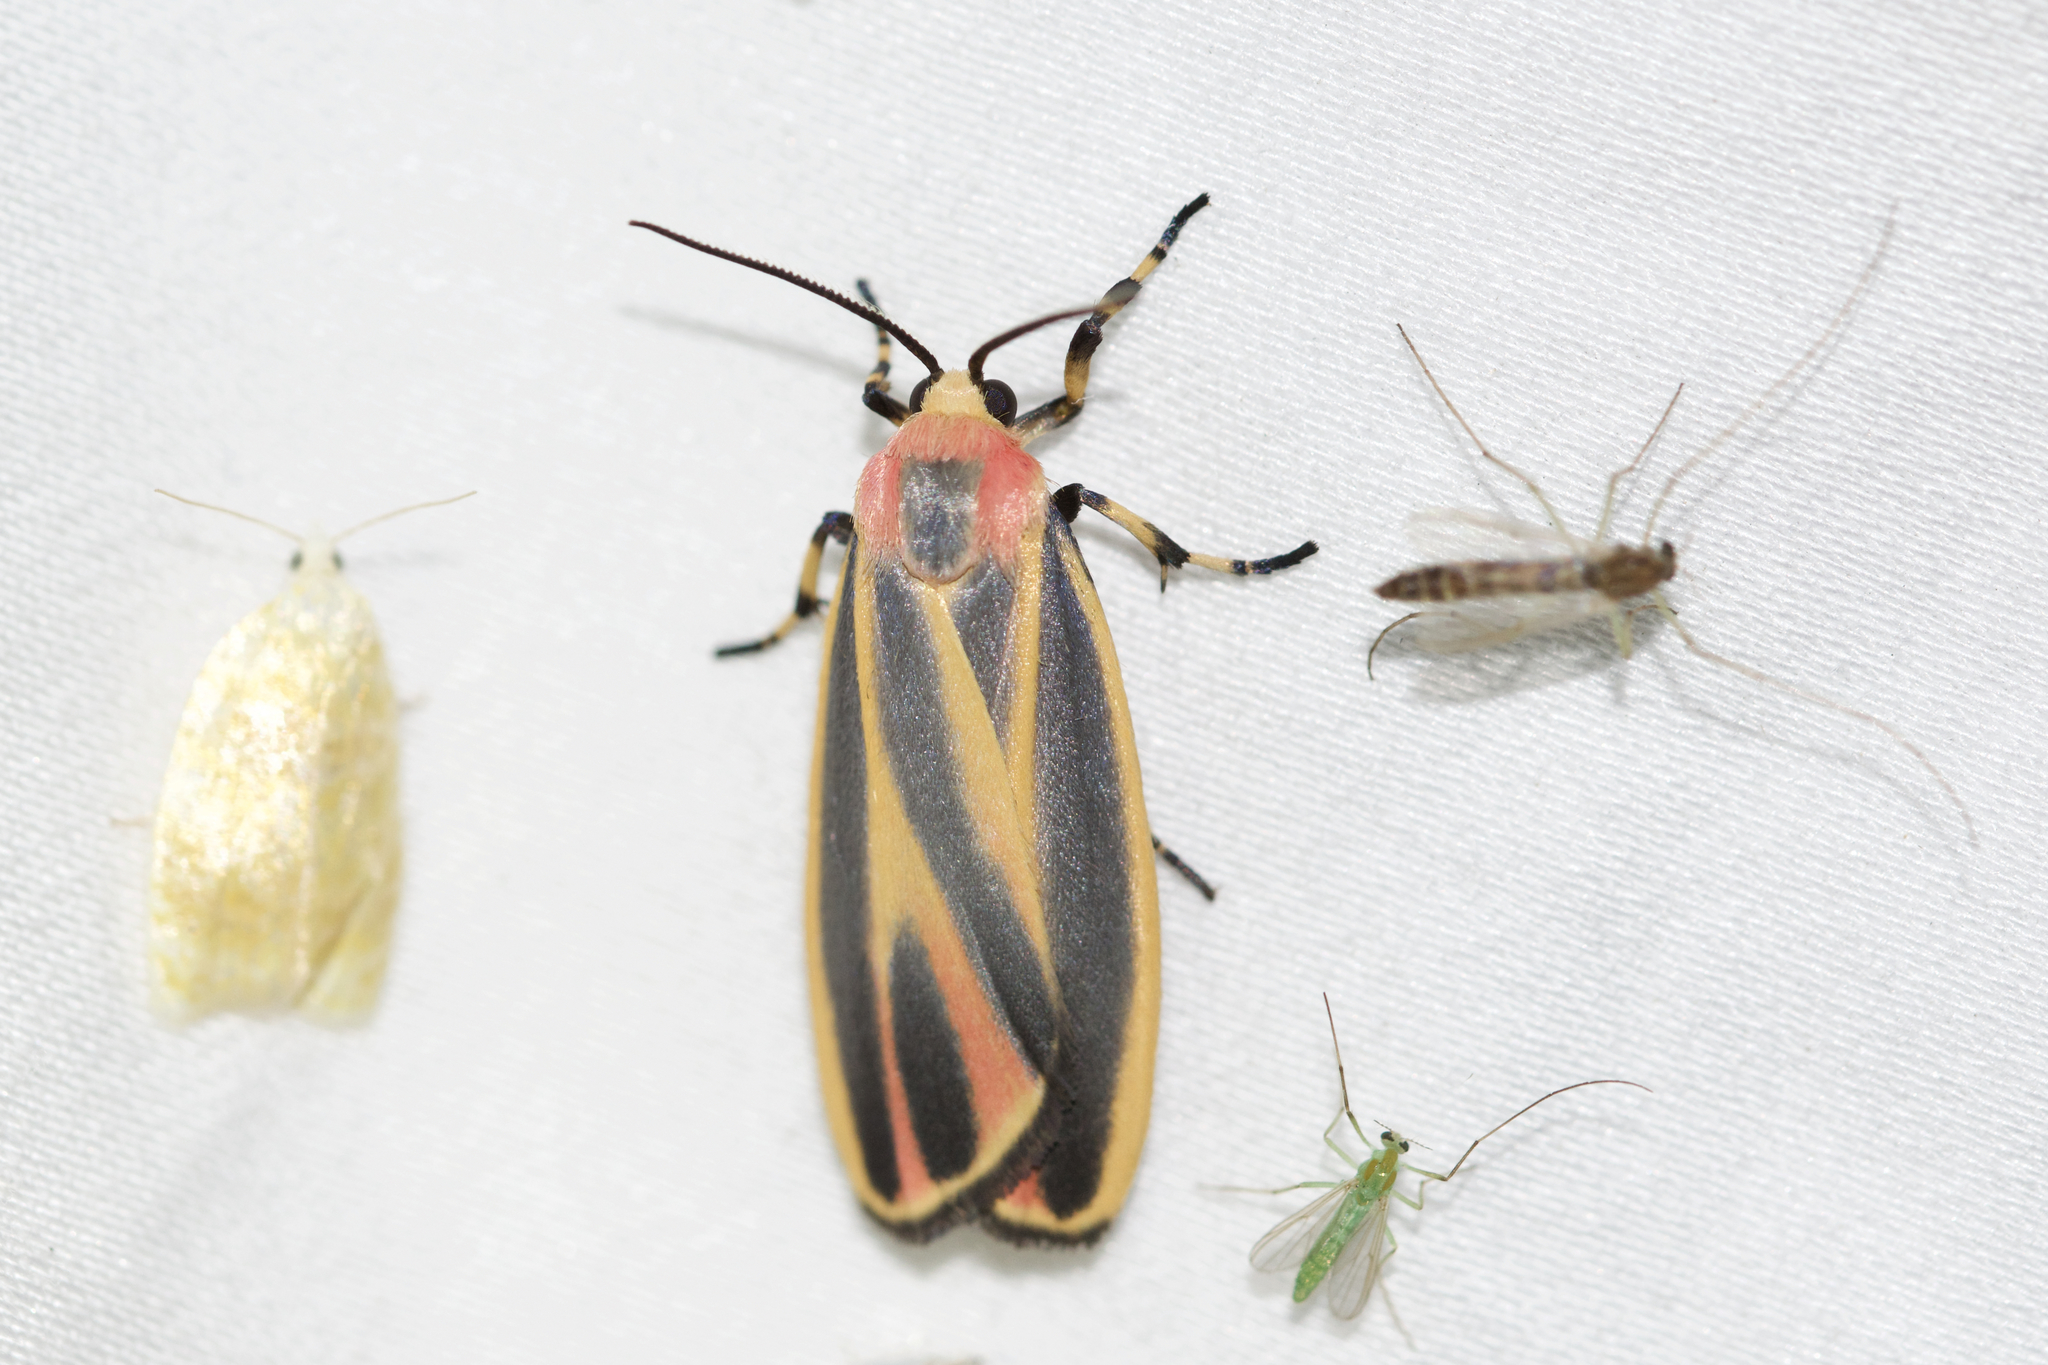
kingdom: Animalia
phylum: Arthropoda
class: Insecta
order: Lepidoptera
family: Erebidae
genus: Hypoprepia
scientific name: Hypoprepia fucosa
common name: Painted lichen moth
